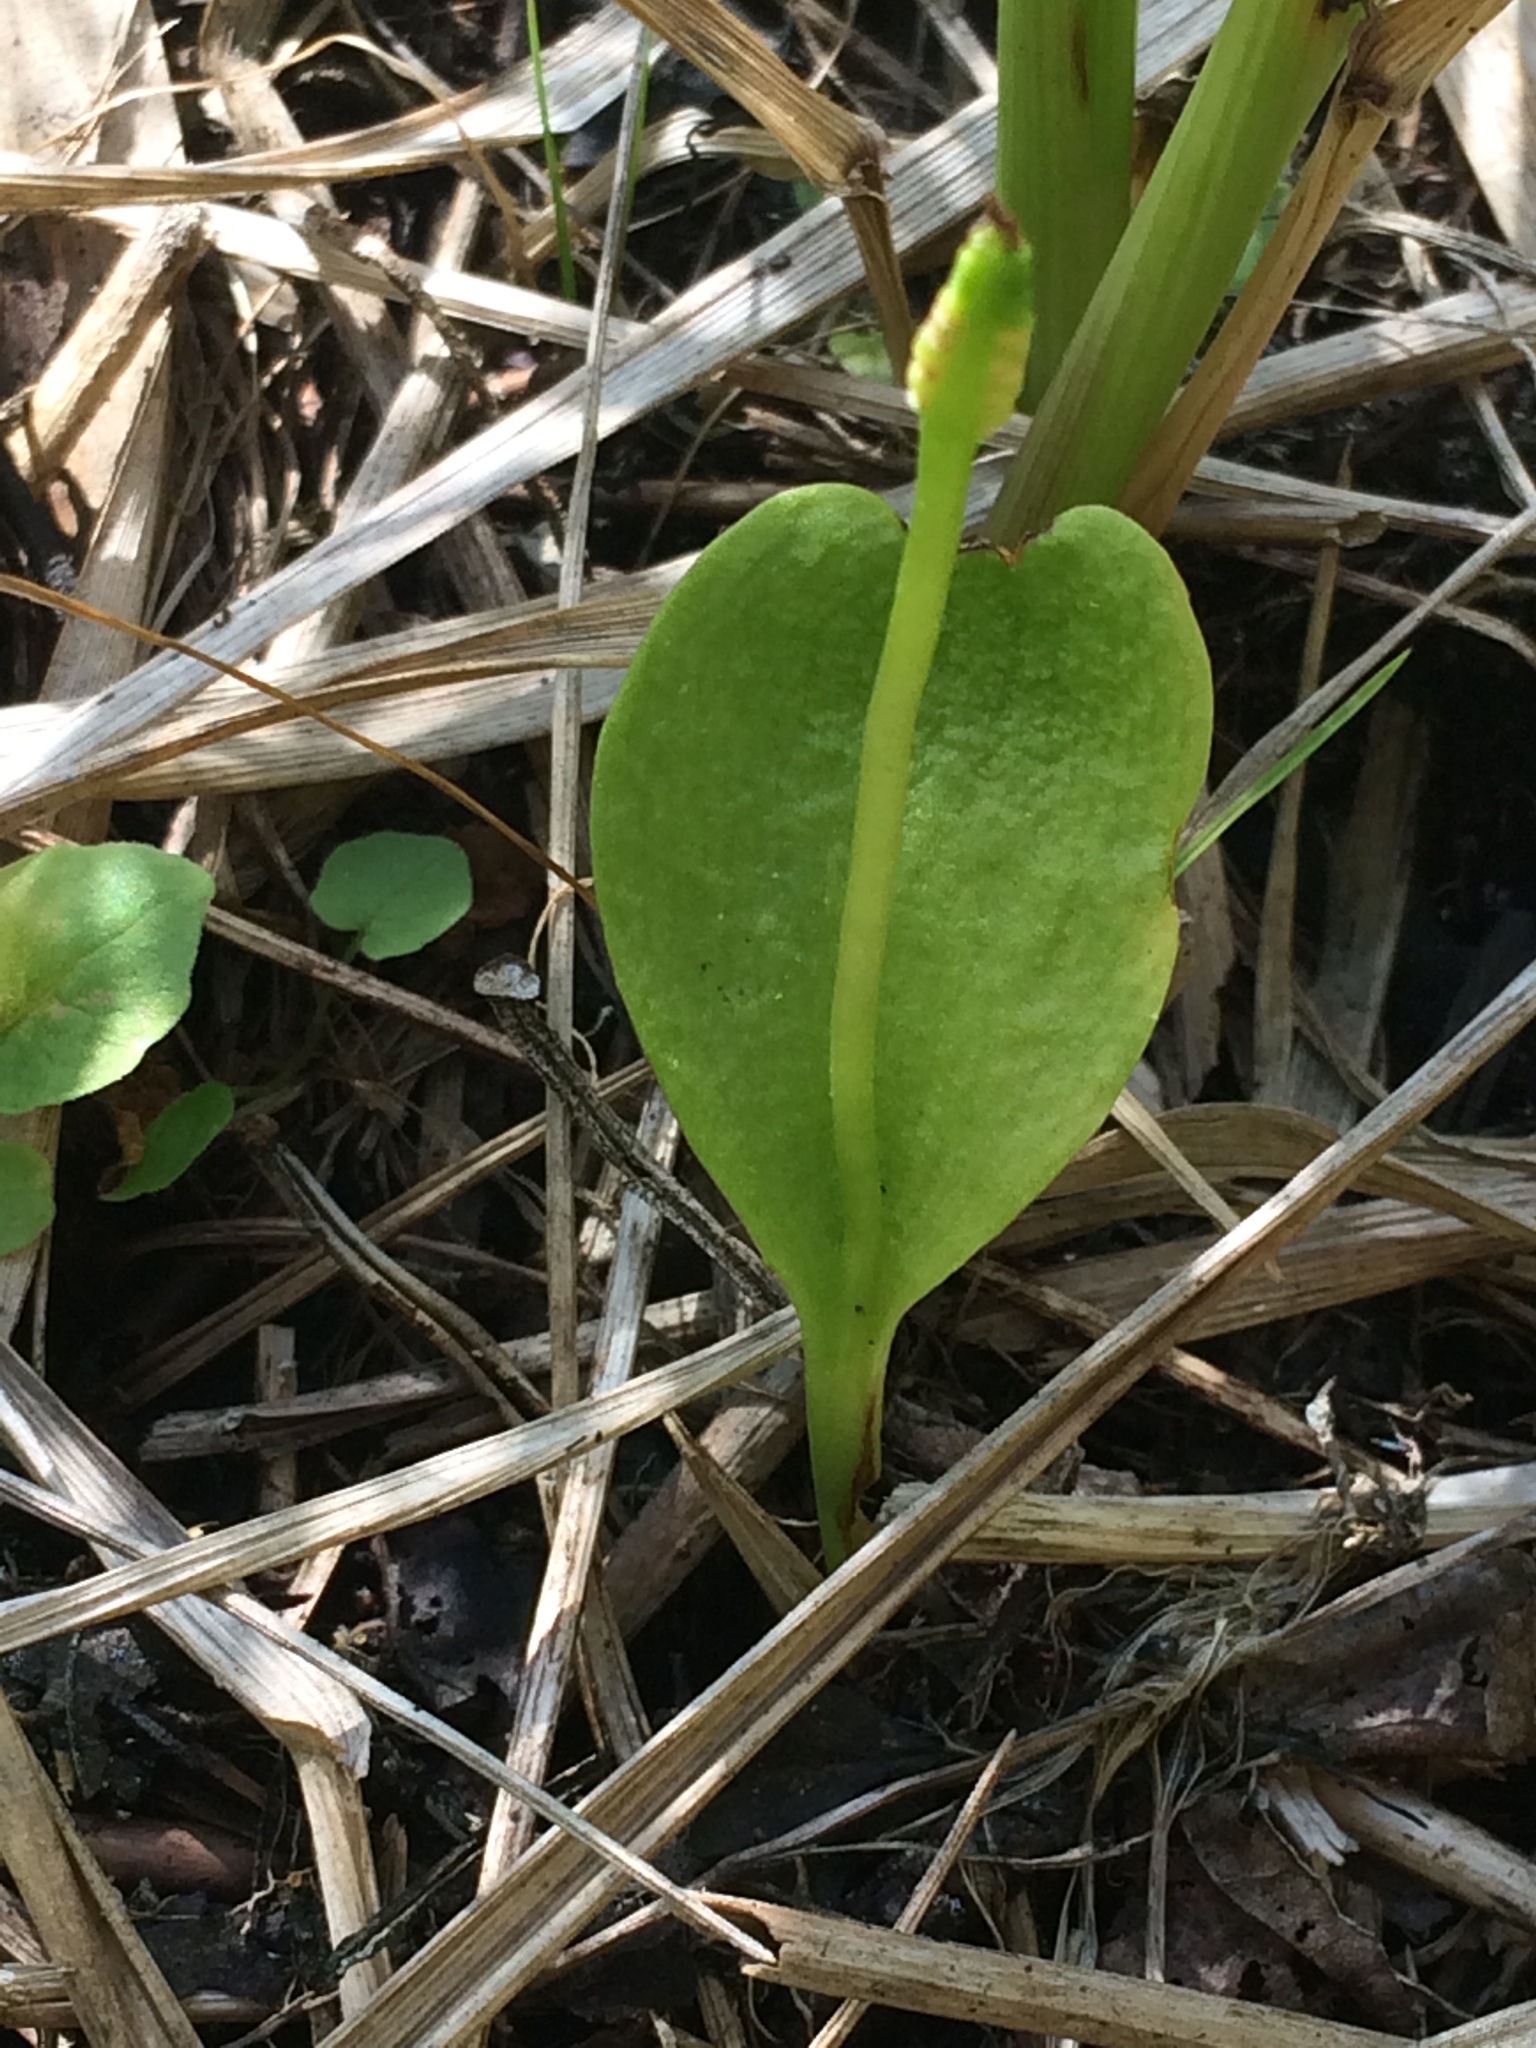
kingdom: Plantae
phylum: Tracheophyta
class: Polypodiopsida
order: Ophioglossales
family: Ophioglossaceae
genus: Ophioglossum
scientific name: Ophioglossum vulgatum
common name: Adder's-tongue
